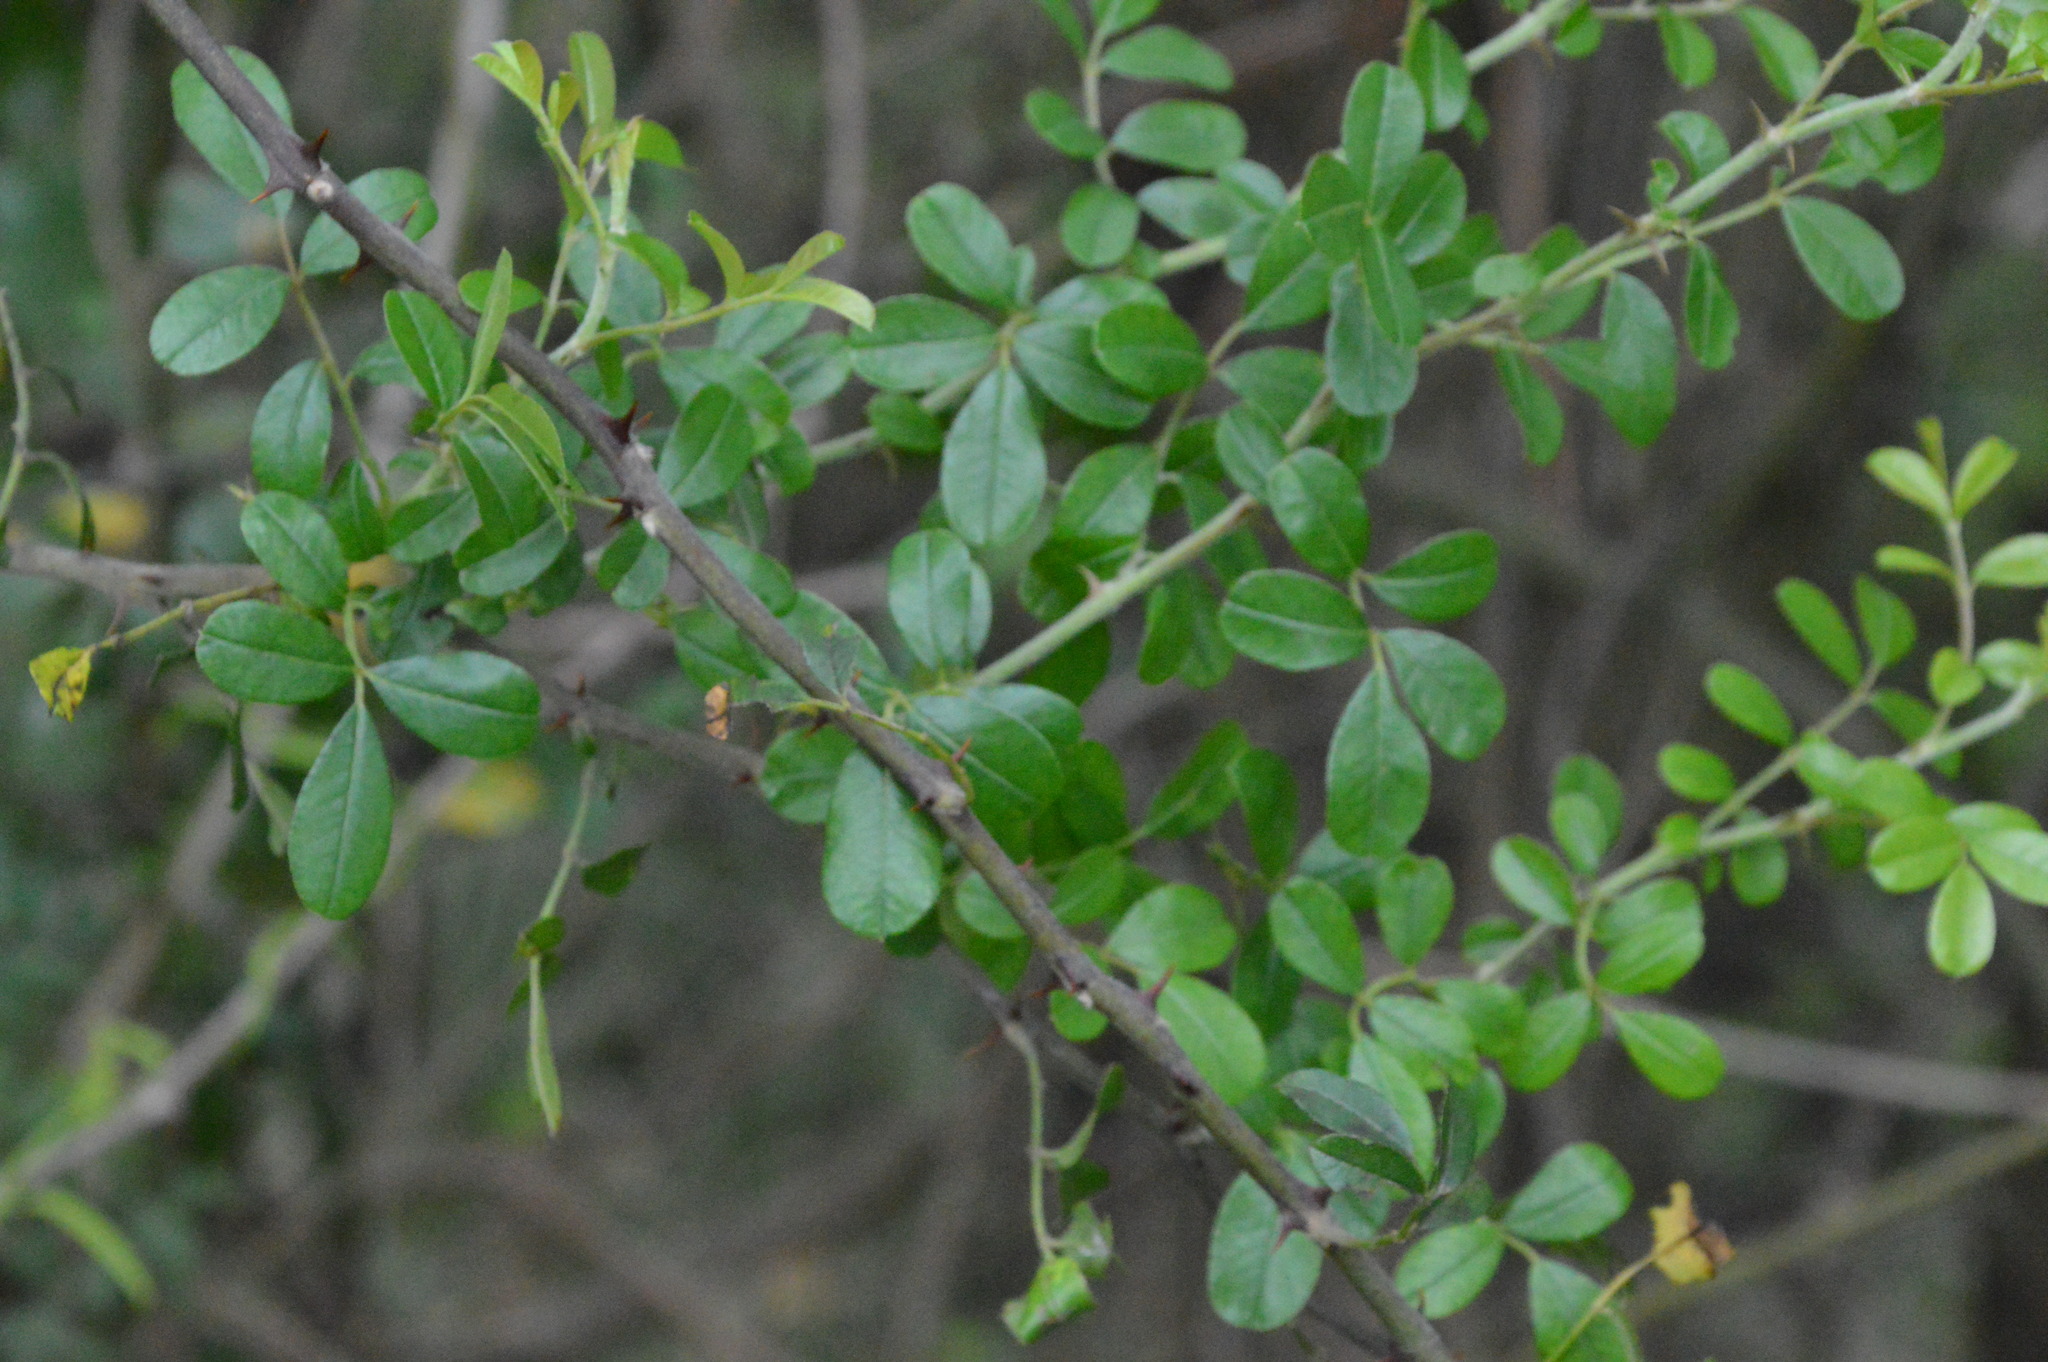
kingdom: Plantae
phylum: Tracheophyta
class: Magnoliopsida
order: Rosales
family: Rosaceae
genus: Rosa
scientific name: Rosa bracteata
